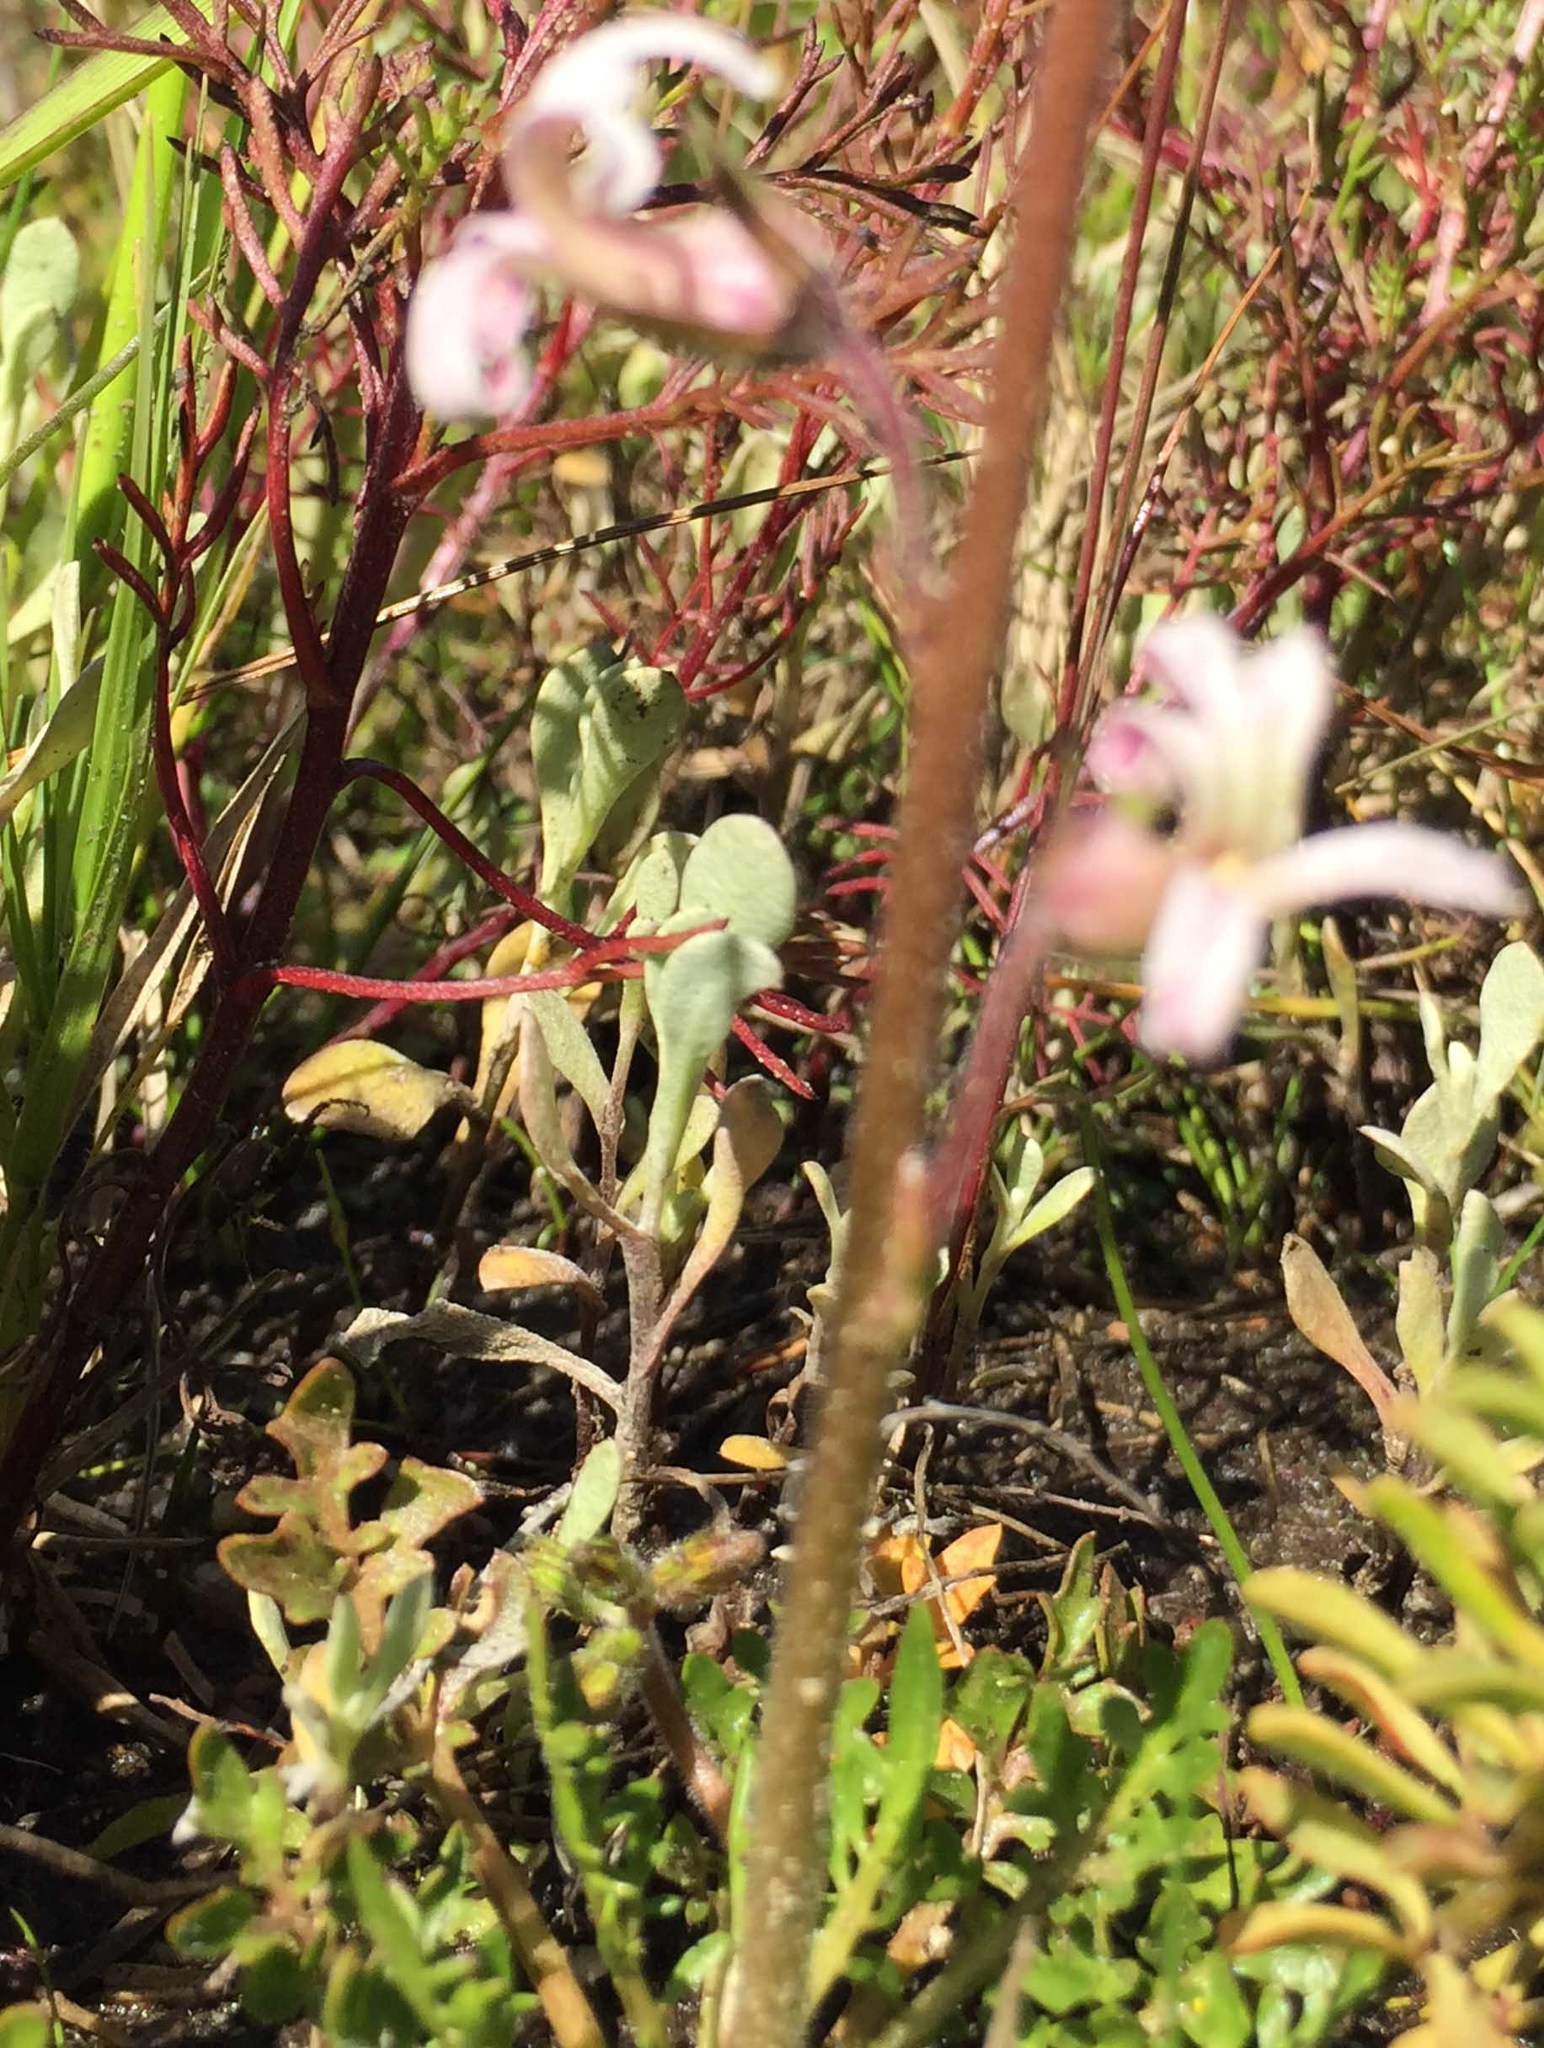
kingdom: Plantae
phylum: Tracheophyta
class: Magnoliopsida
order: Asterales
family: Campanulaceae
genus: Cyphia
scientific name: Cyphia incisa
